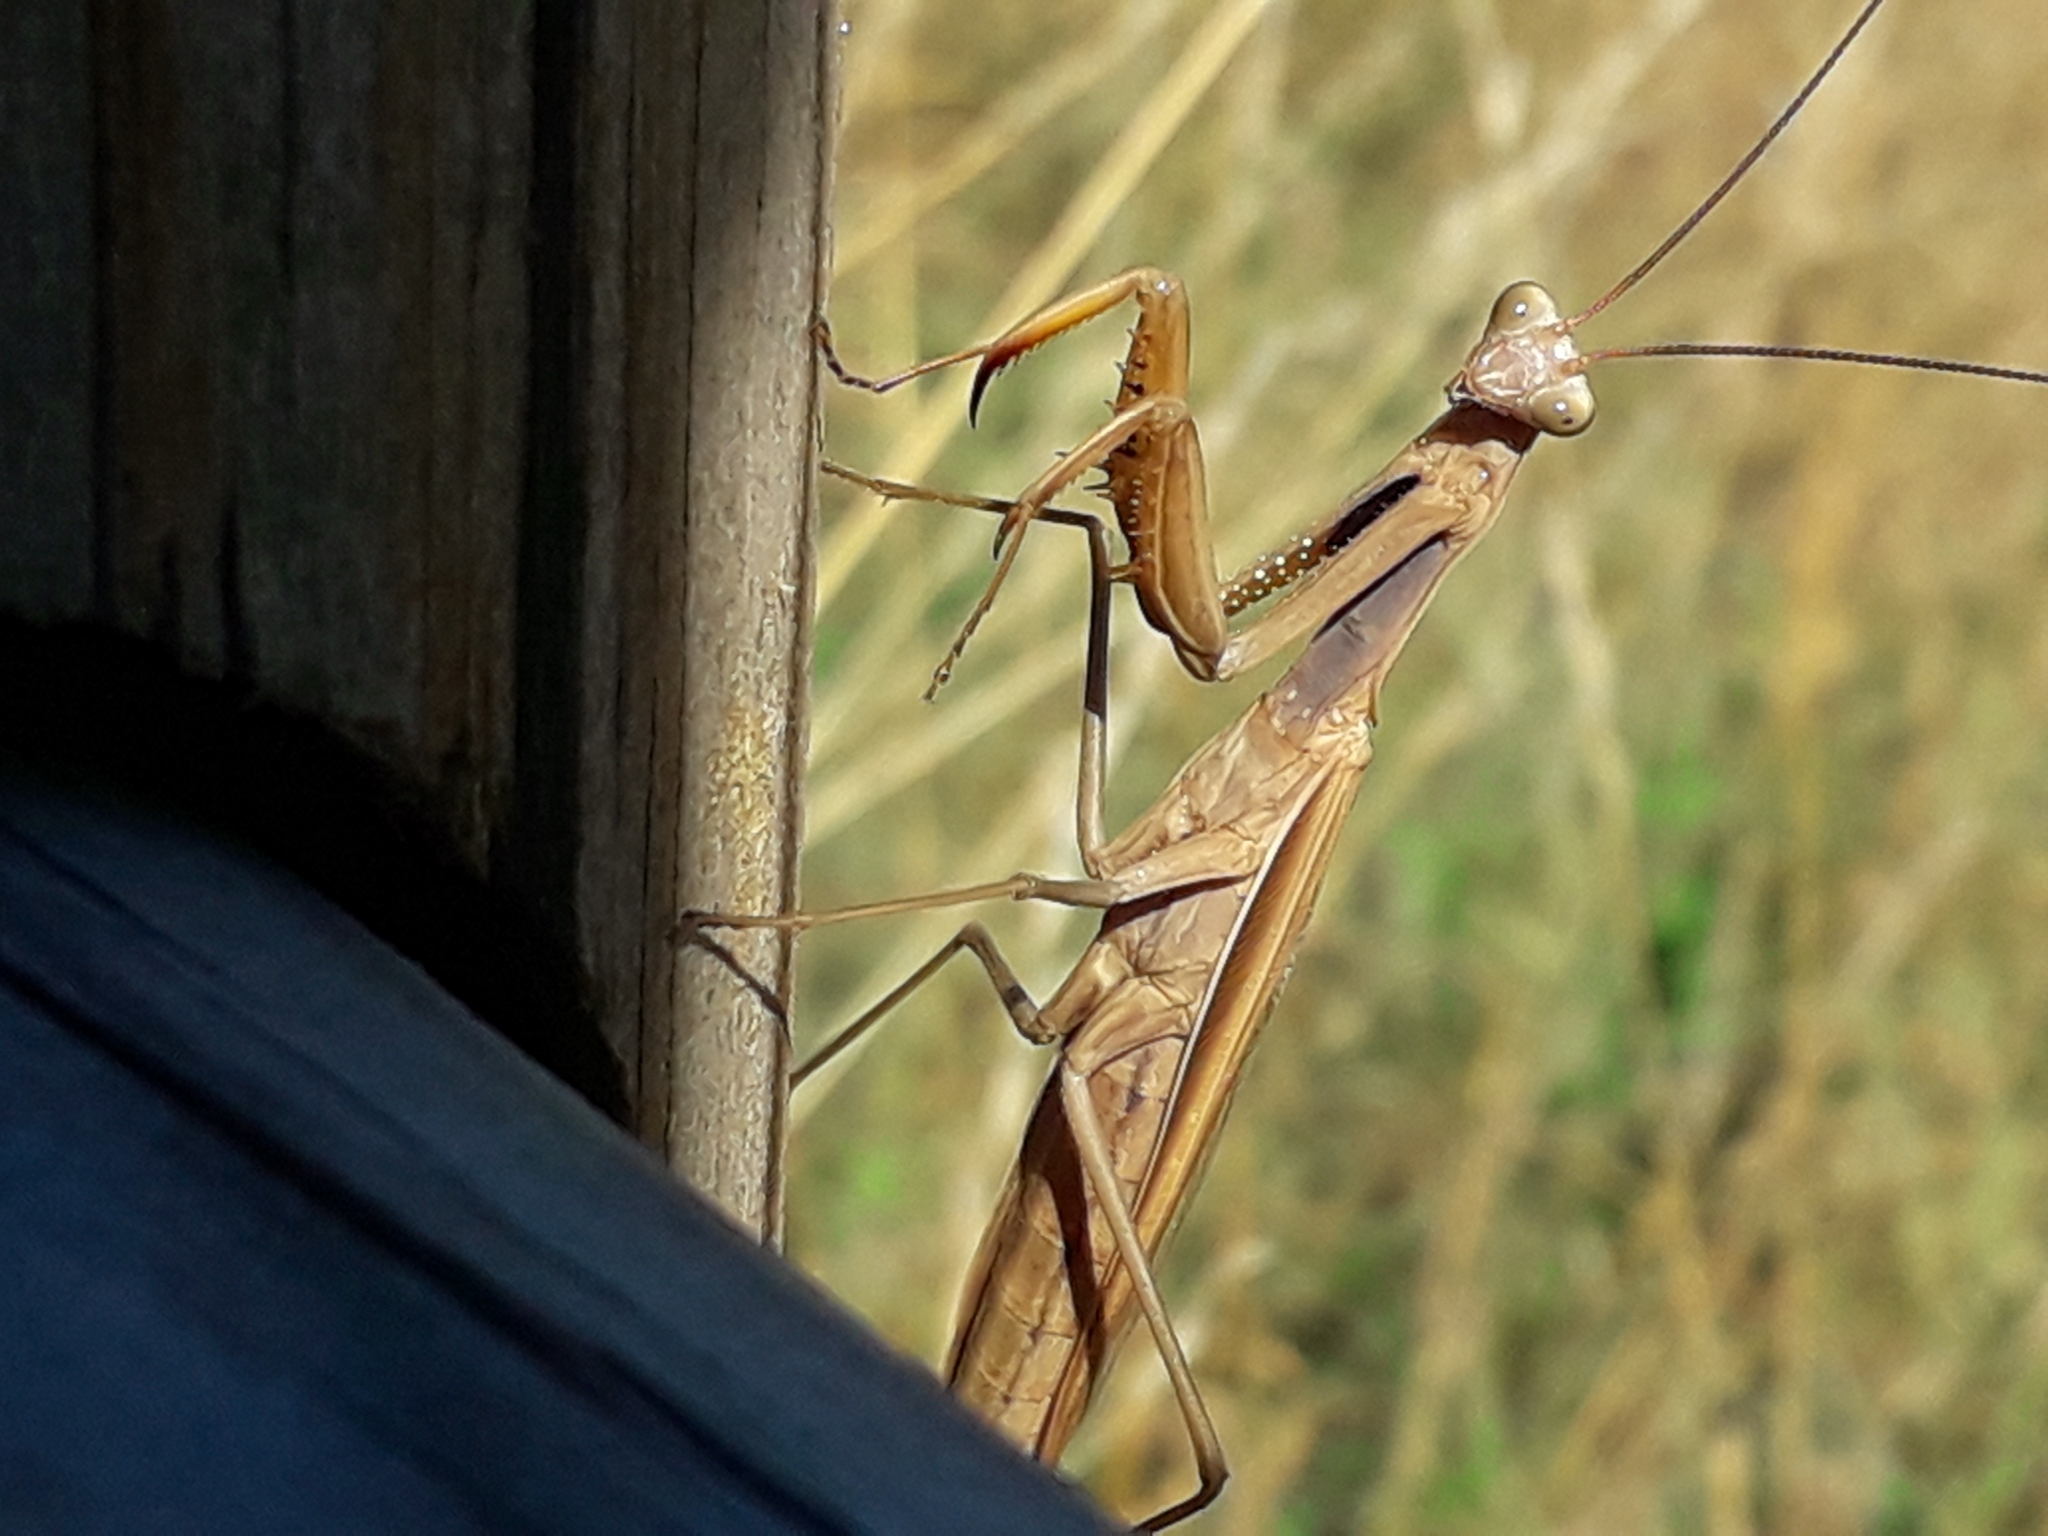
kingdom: Animalia
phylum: Arthropoda
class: Insecta
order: Mantodea
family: Mantidae
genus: Mantis
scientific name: Mantis religiosa
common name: Praying mantis
